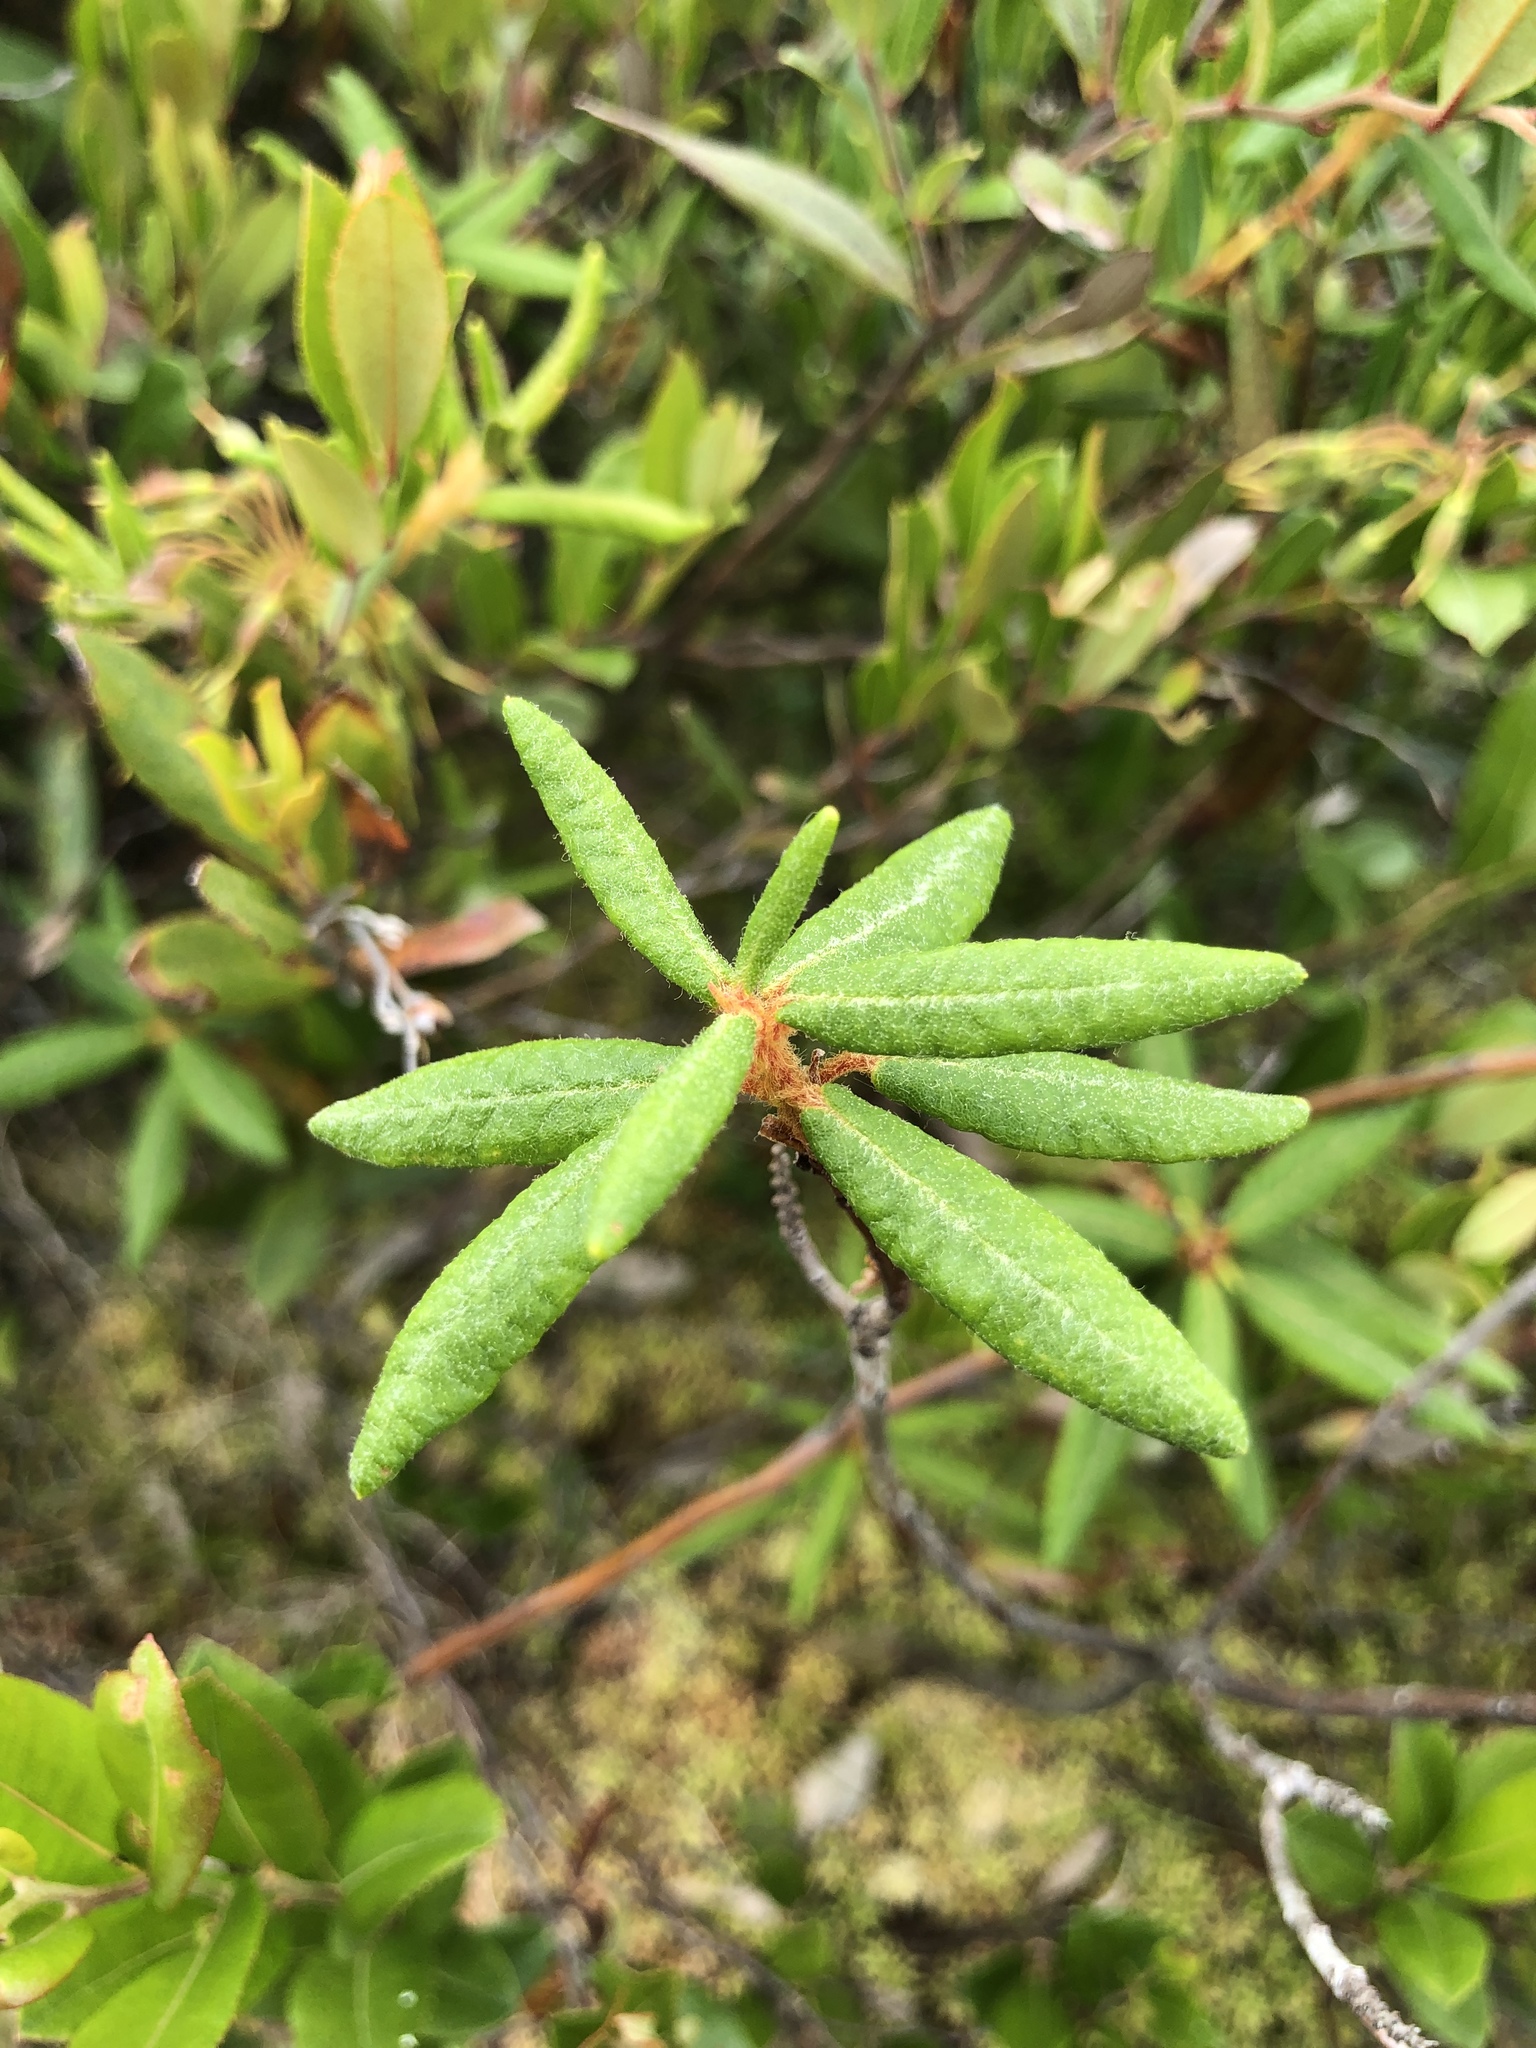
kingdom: Plantae
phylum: Tracheophyta
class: Magnoliopsida
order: Ericales
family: Ericaceae
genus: Rhododendron
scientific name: Rhododendron groenlandicum
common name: Bog labrador tea
